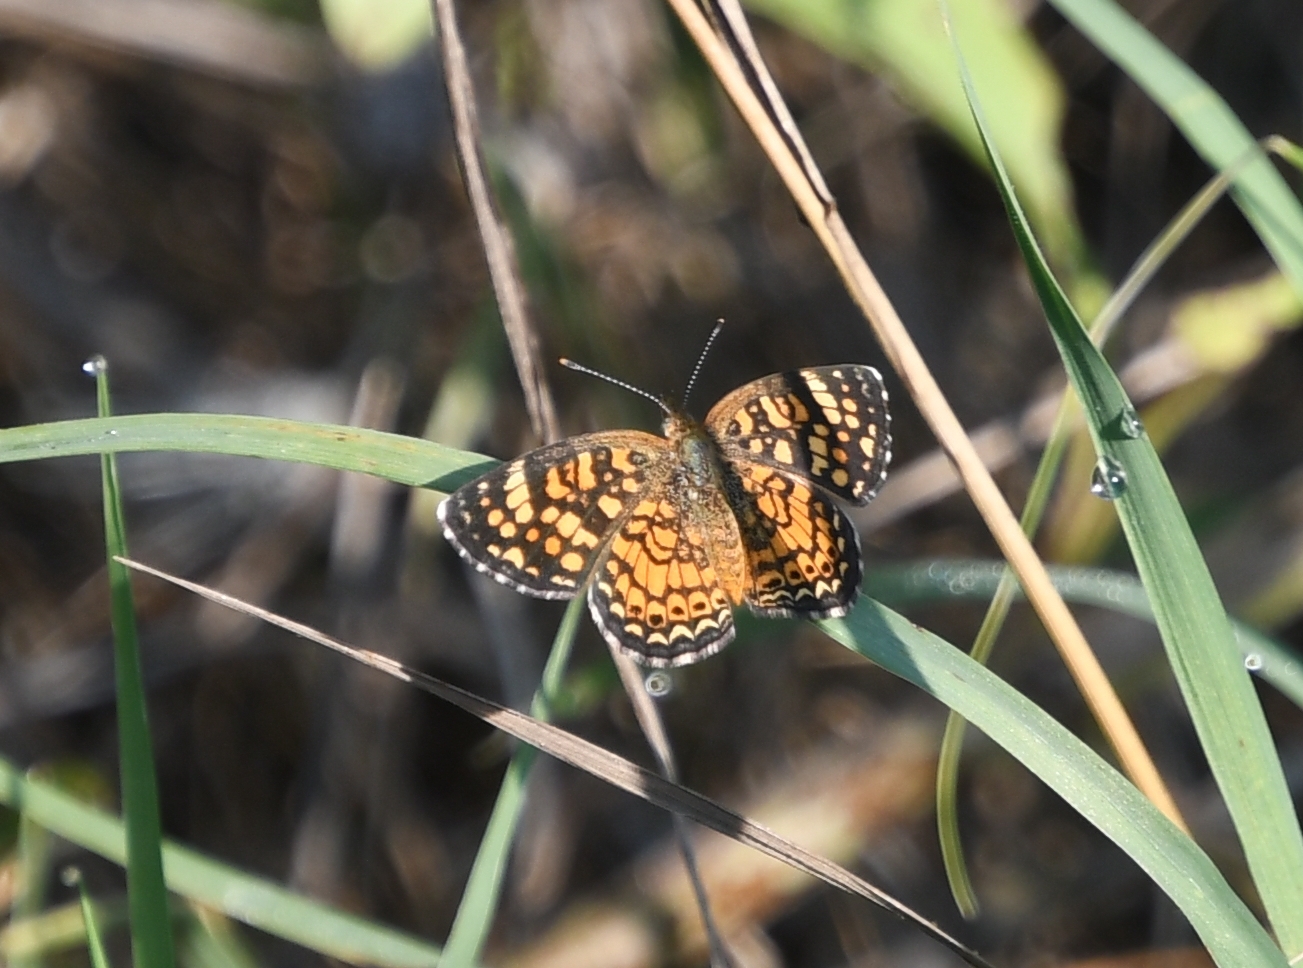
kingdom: Animalia
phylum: Arthropoda
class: Insecta
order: Lepidoptera
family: Nymphalidae
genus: Phyciodes
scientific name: Phyciodes vesta
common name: Vesta crescent
